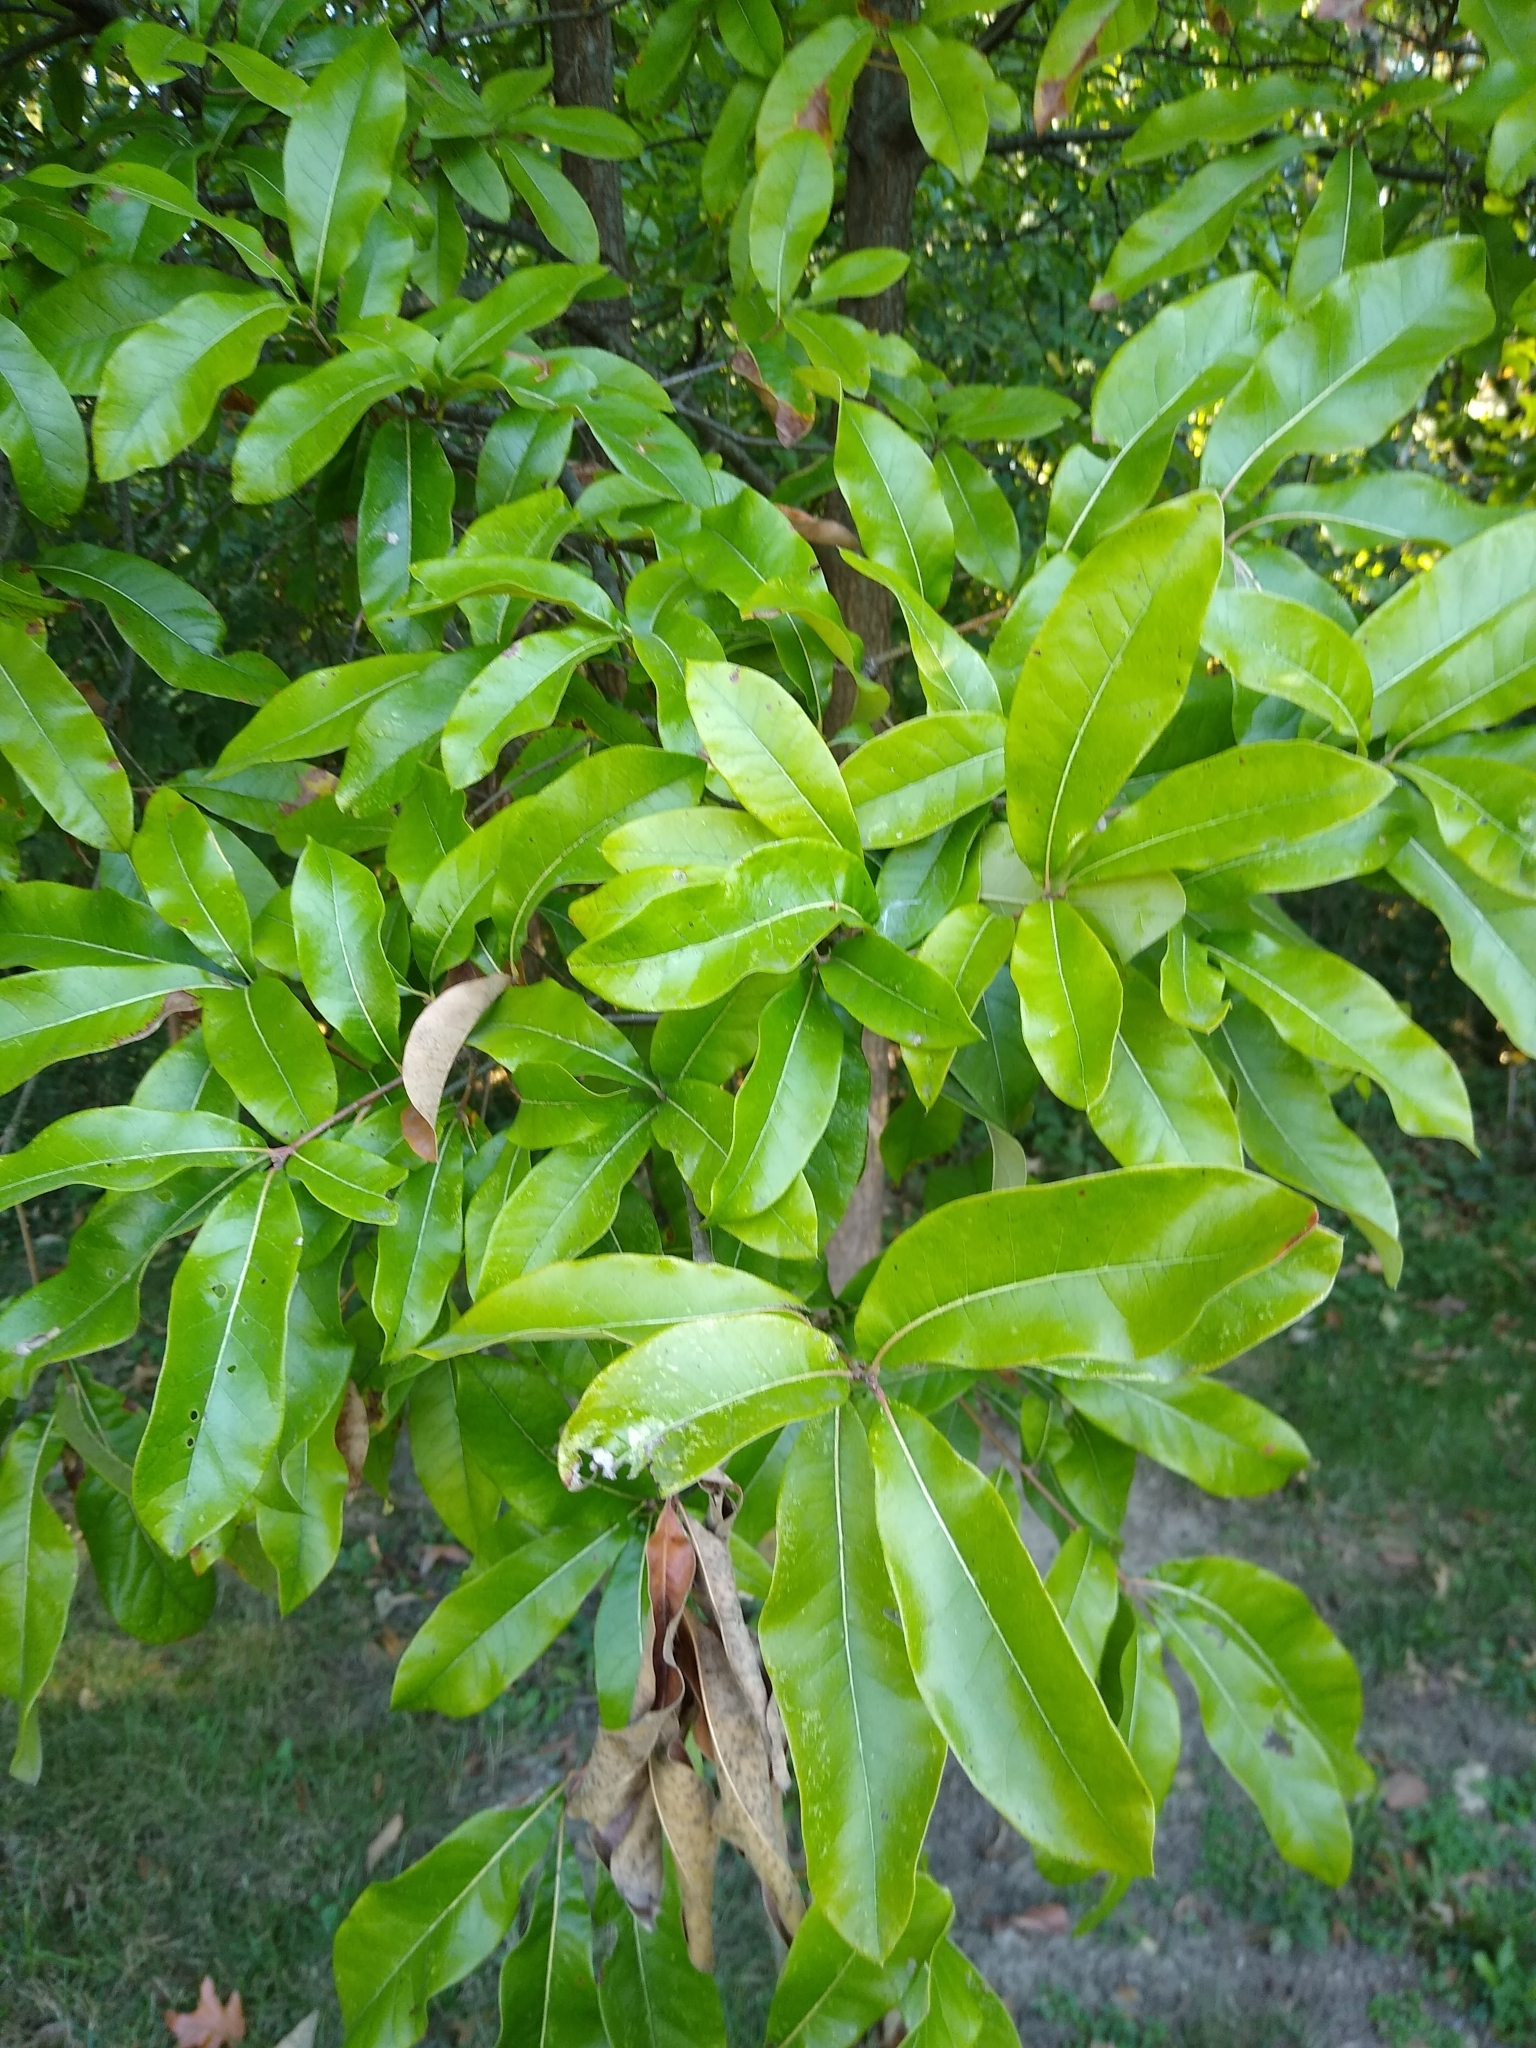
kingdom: Plantae
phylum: Tracheophyta
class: Magnoliopsida
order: Fagales
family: Fagaceae
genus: Quercus
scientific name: Quercus imbricaria
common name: Shingle oak
